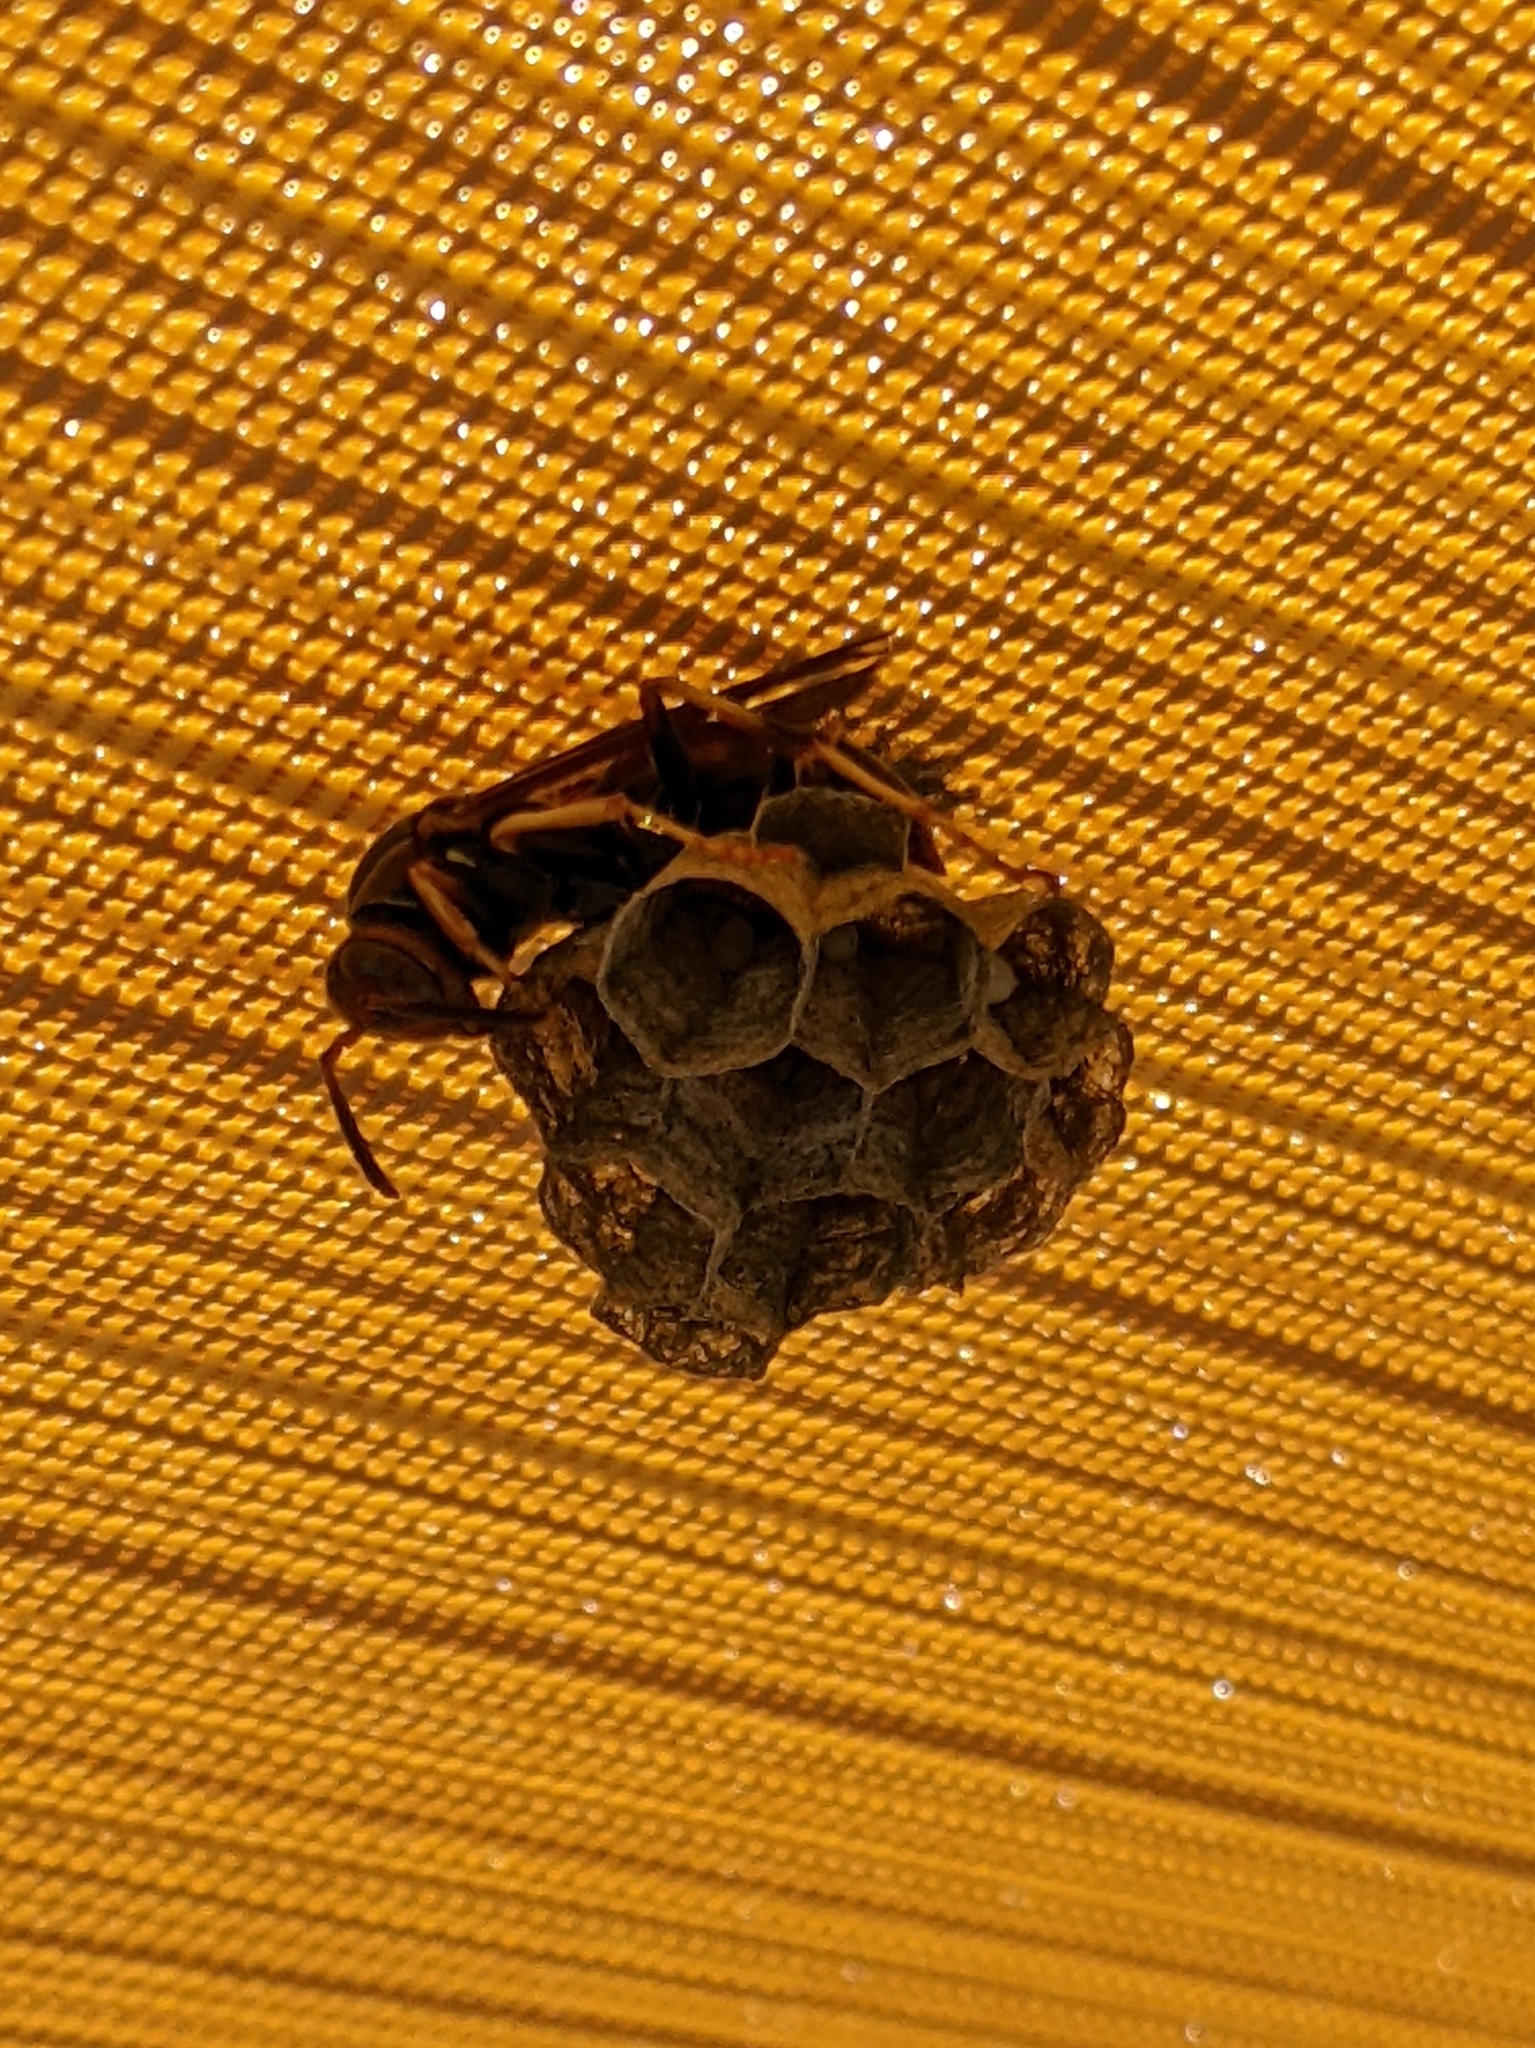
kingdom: Animalia
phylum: Arthropoda
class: Insecta
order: Hymenoptera
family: Eumenidae
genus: Polistes
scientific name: Polistes fuscatus
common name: Dark paper wasp
